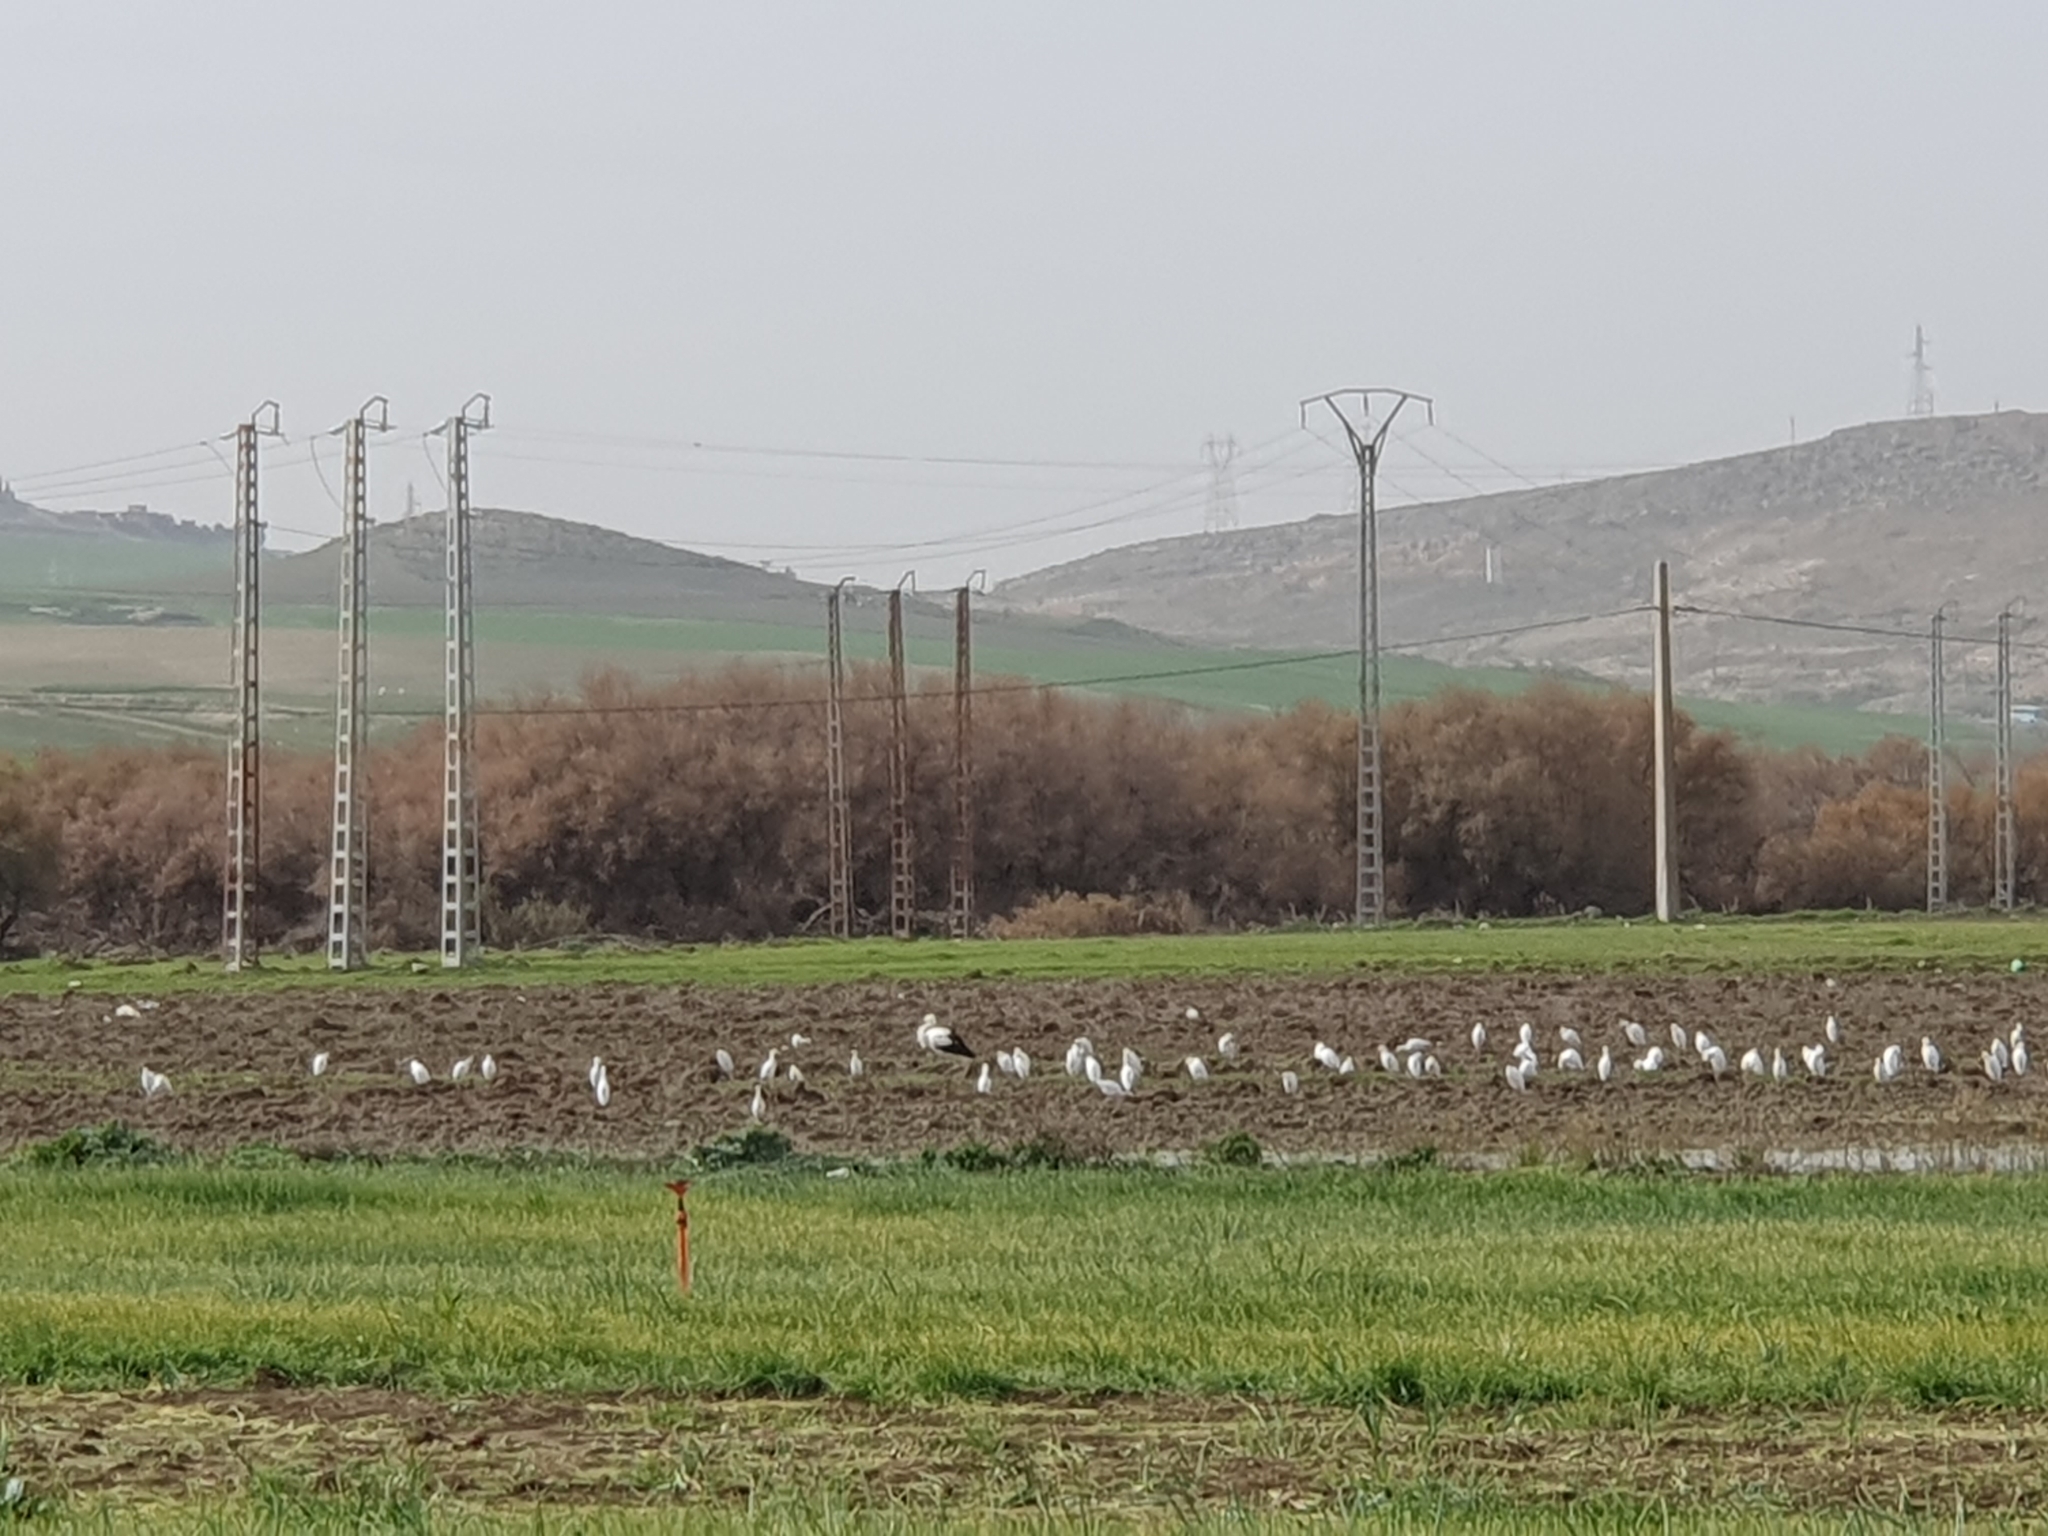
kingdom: Animalia
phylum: Chordata
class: Aves
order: Pelecaniformes
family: Ardeidae
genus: Bubulcus
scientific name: Bubulcus ibis
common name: Cattle egret
